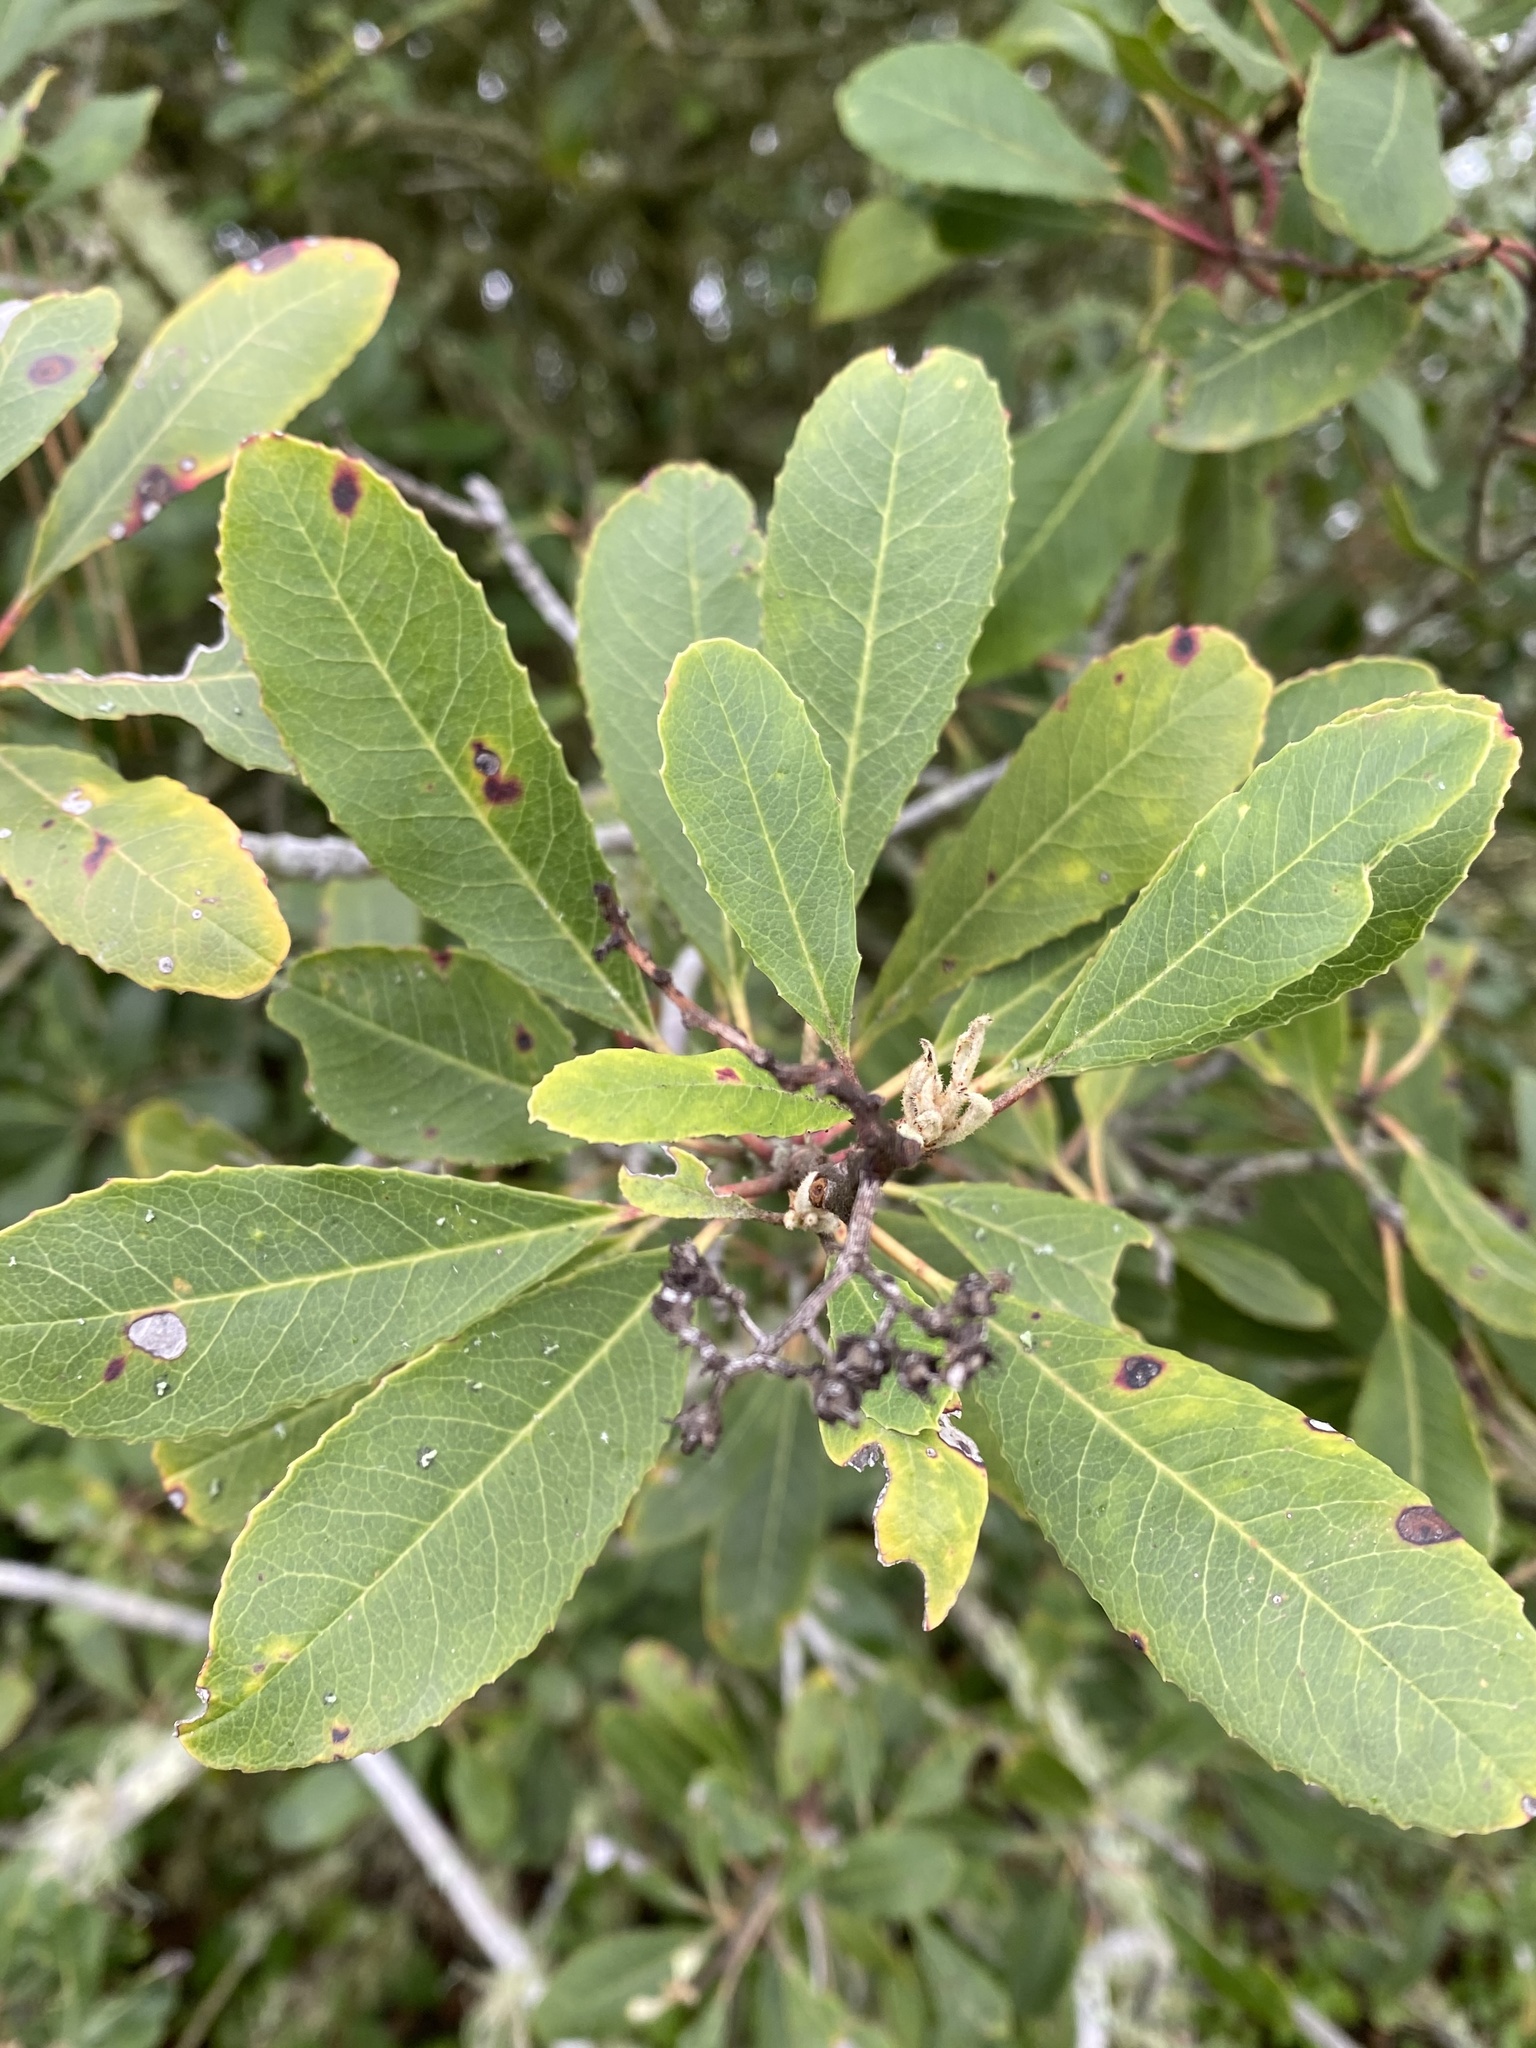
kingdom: Plantae
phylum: Tracheophyta
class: Magnoliopsida
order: Rosales
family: Rosaceae
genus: Heteromeles
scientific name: Heteromeles arbutifolia
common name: California-holly
